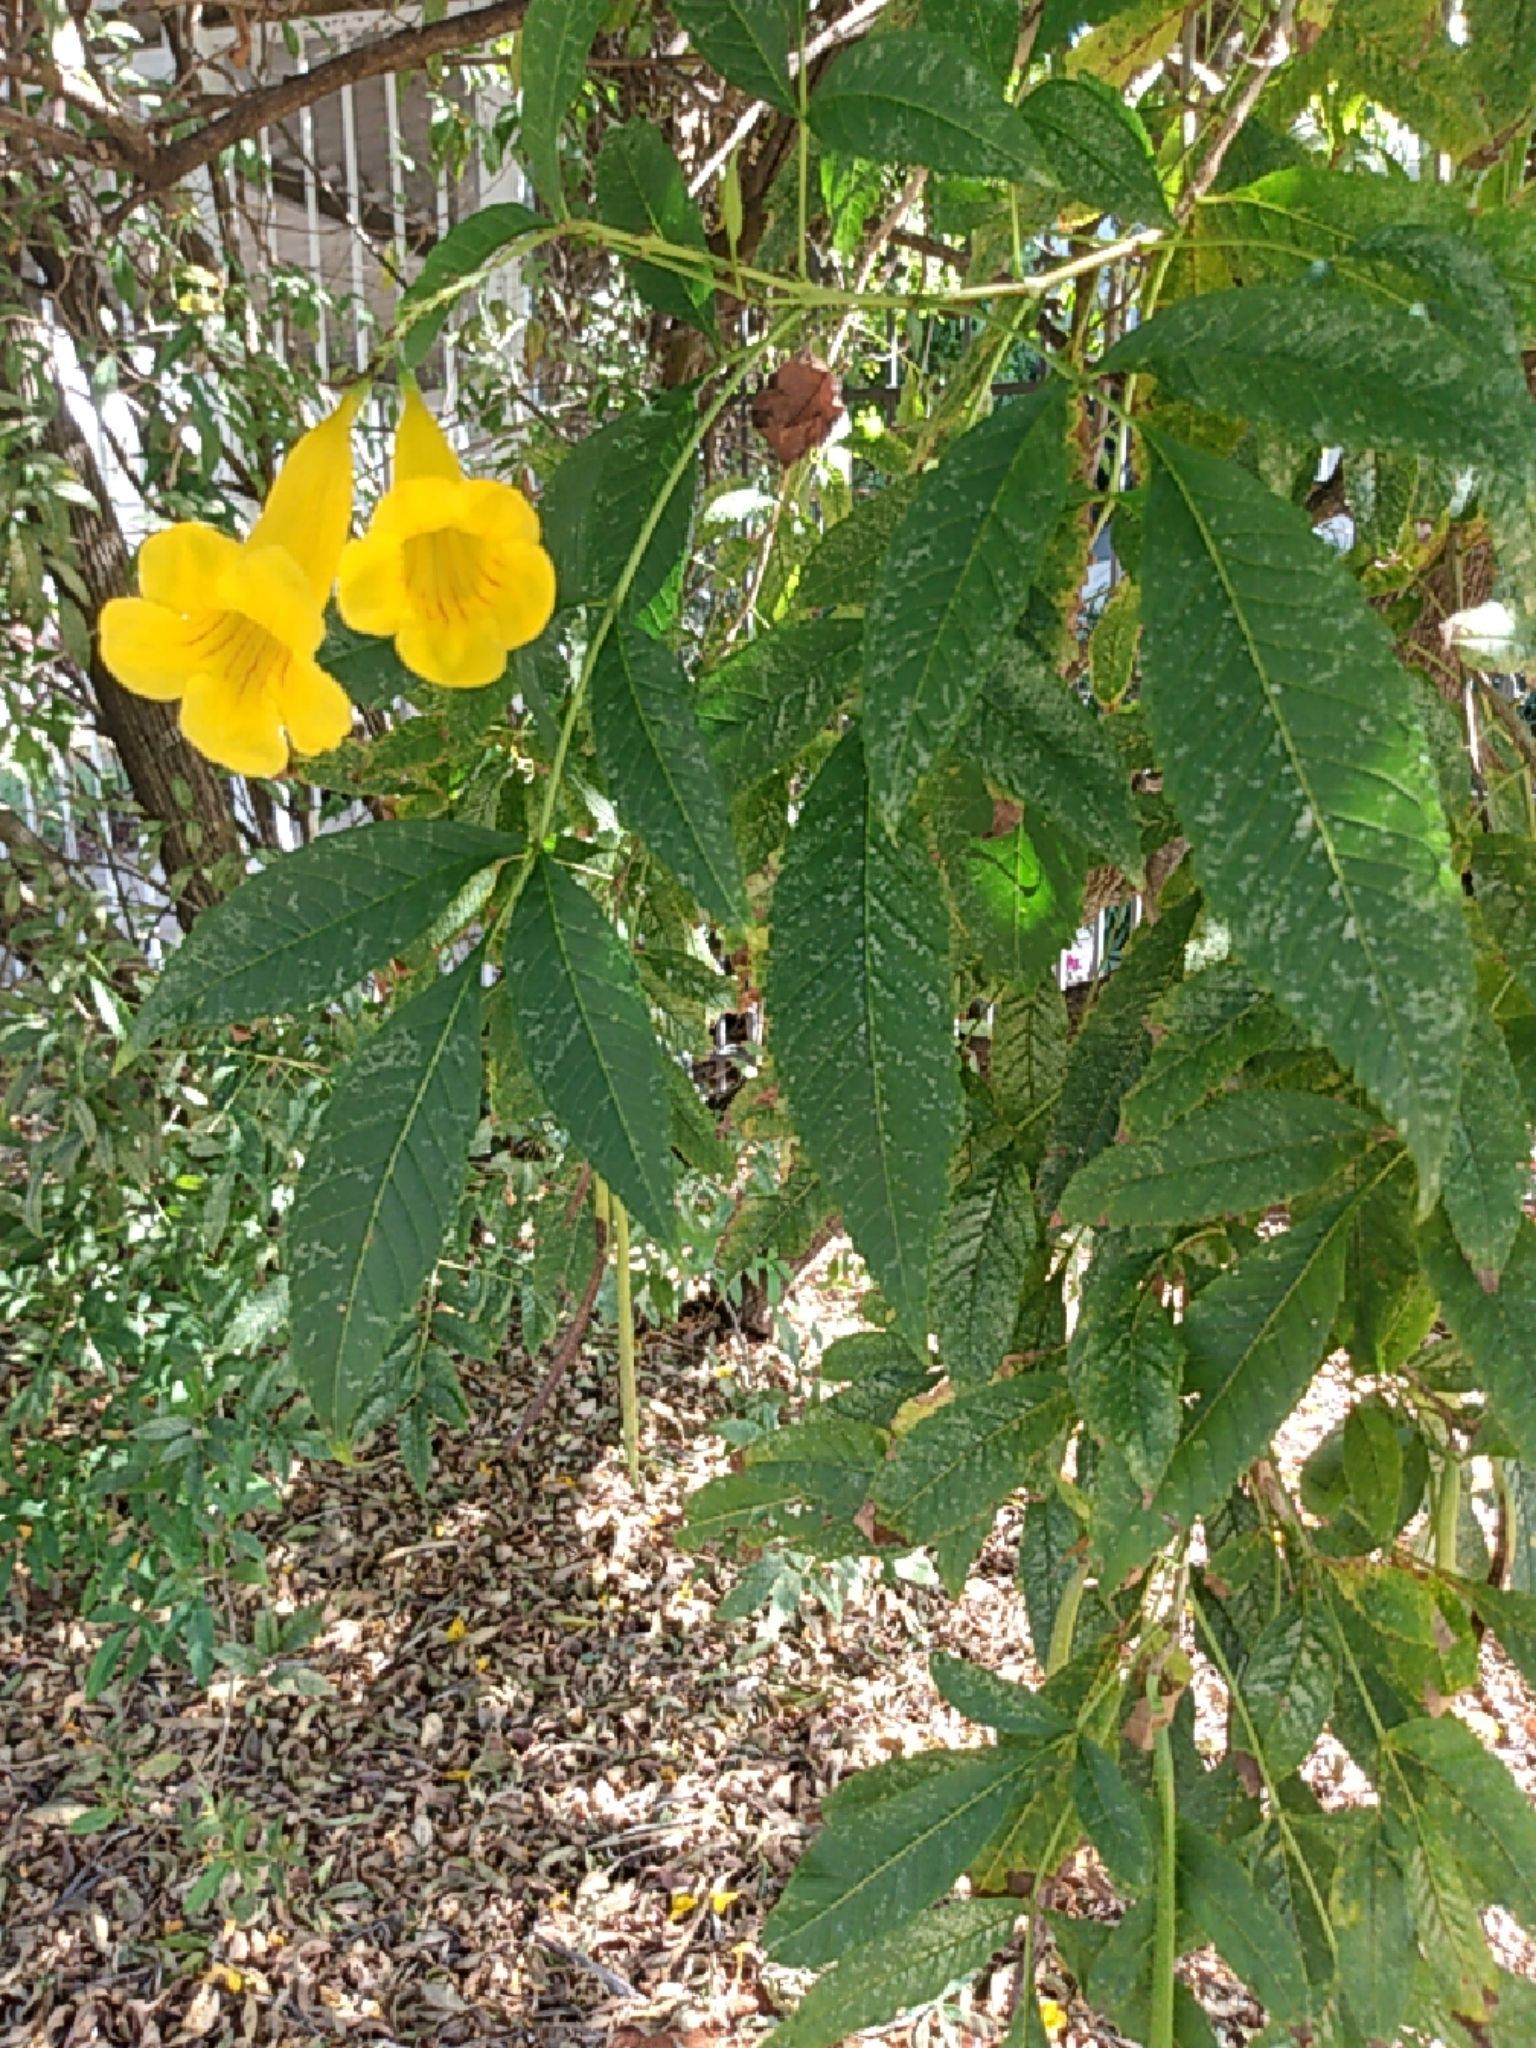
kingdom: Plantae
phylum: Tracheophyta
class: Magnoliopsida
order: Lamiales
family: Bignoniaceae
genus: Tecoma
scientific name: Tecoma stans
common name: Yellow trumpetbush
